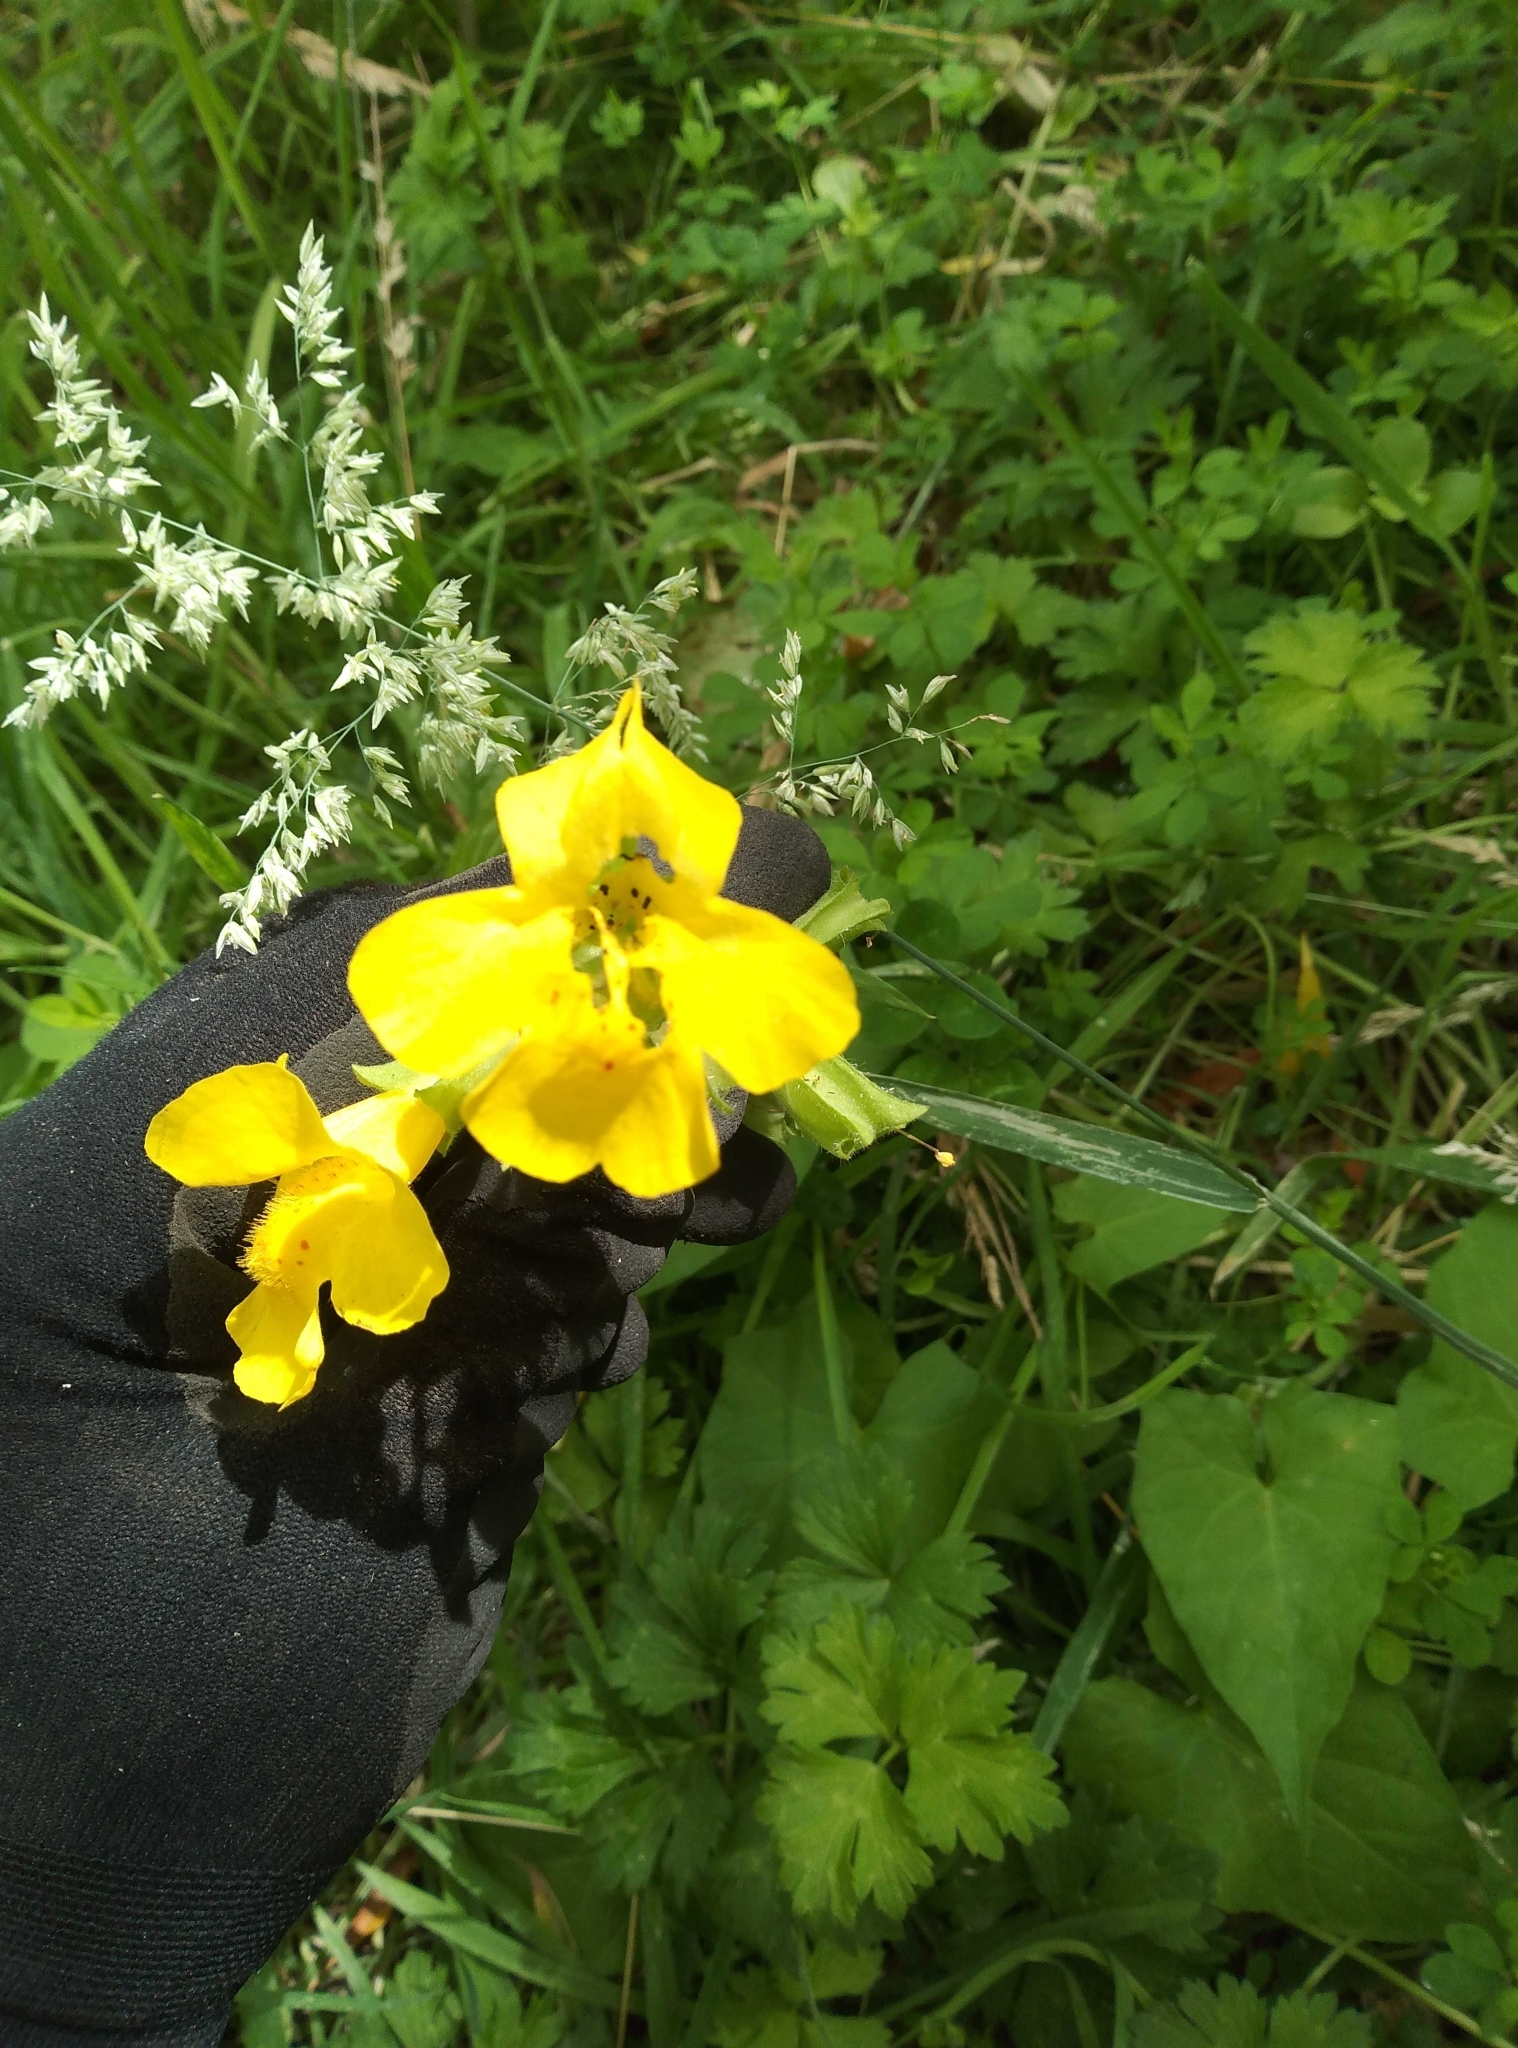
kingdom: Plantae
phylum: Tracheophyta
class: Magnoliopsida
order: Lamiales
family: Phrymaceae
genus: Erythranthe
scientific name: Erythranthe guttata
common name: Monkeyflower
